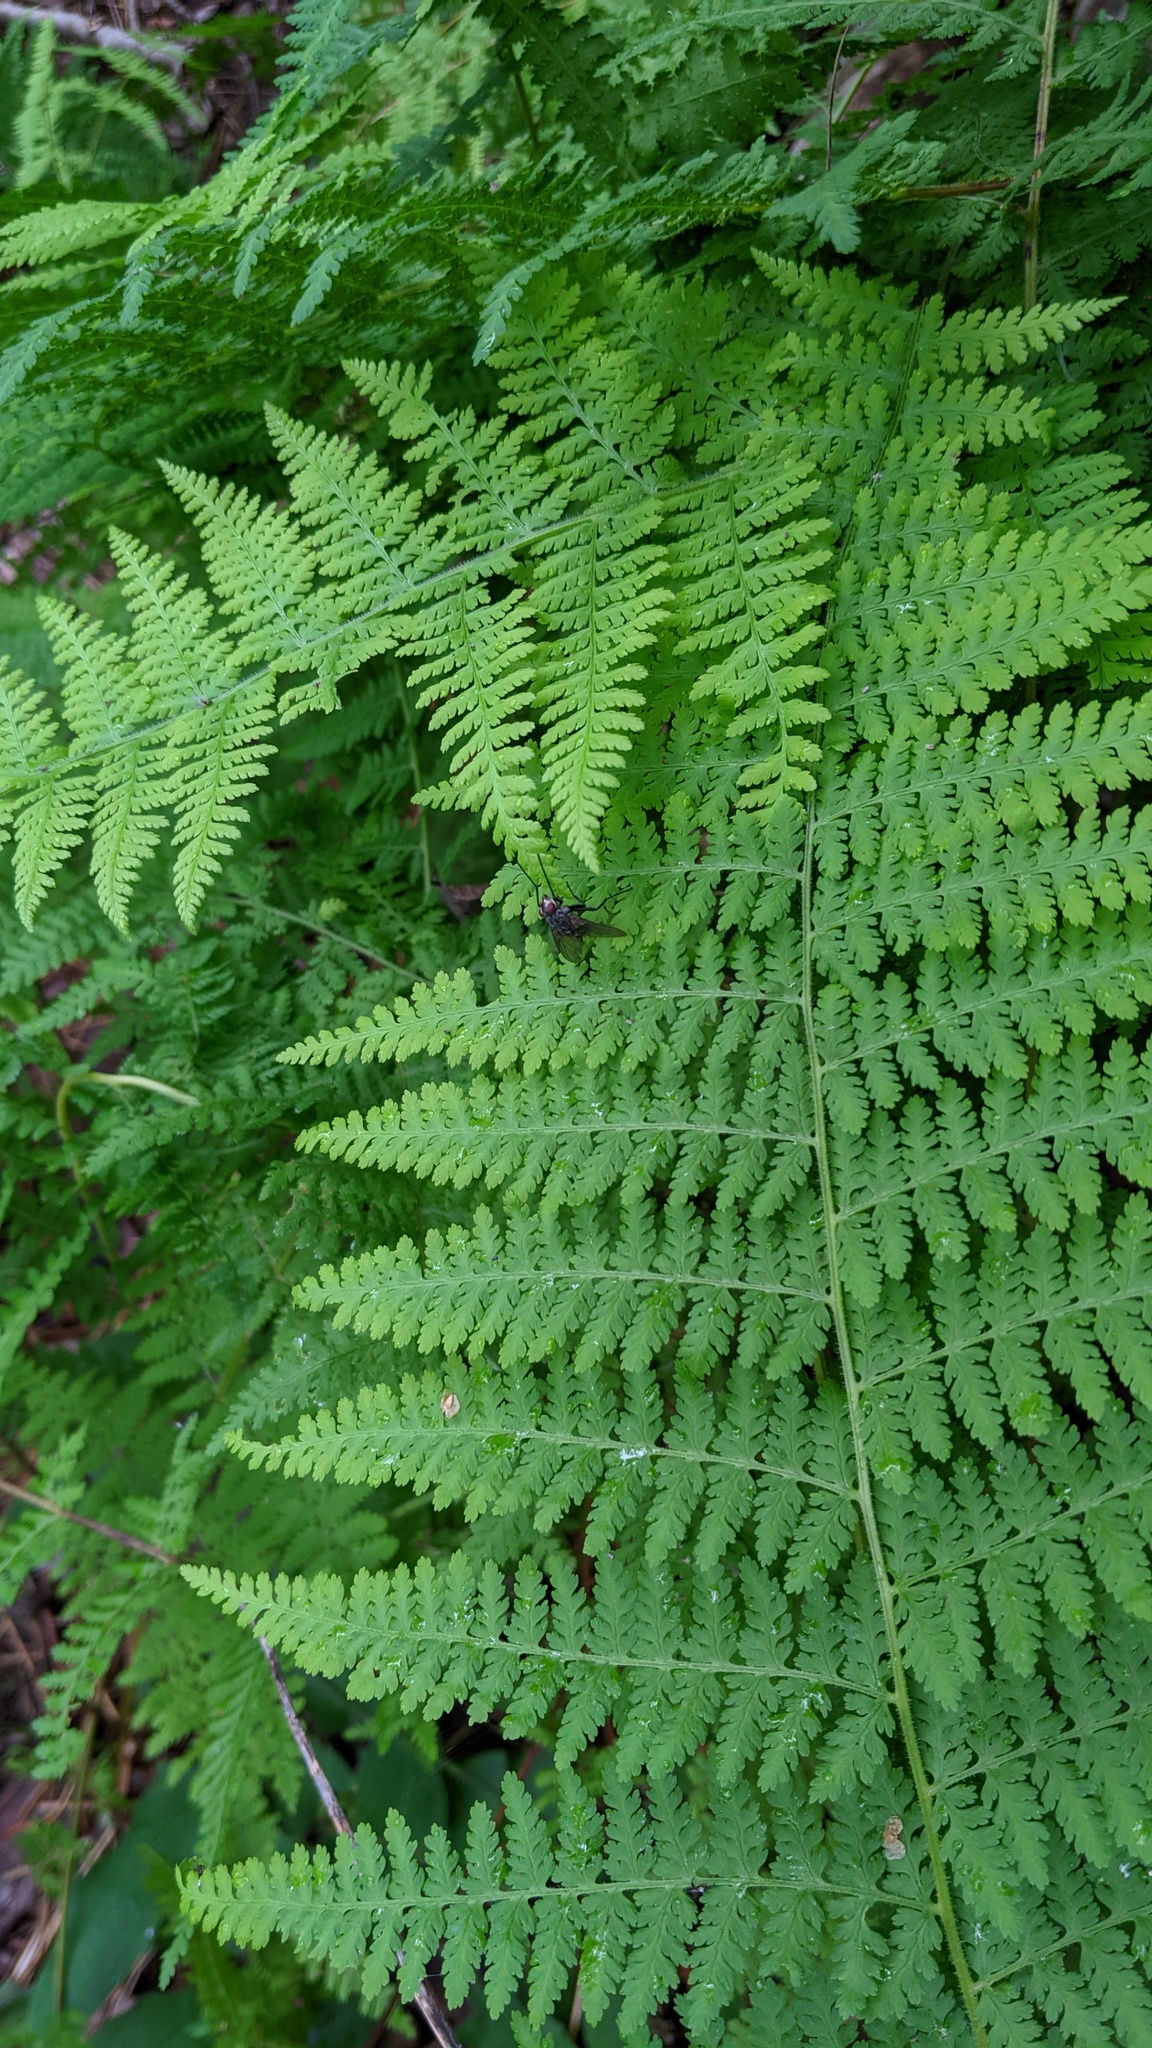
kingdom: Plantae
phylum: Tracheophyta
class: Polypodiopsida
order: Polypodiales
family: Dennstaedtiaceae
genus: Sitobolium
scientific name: Sitobolium punctilobum
